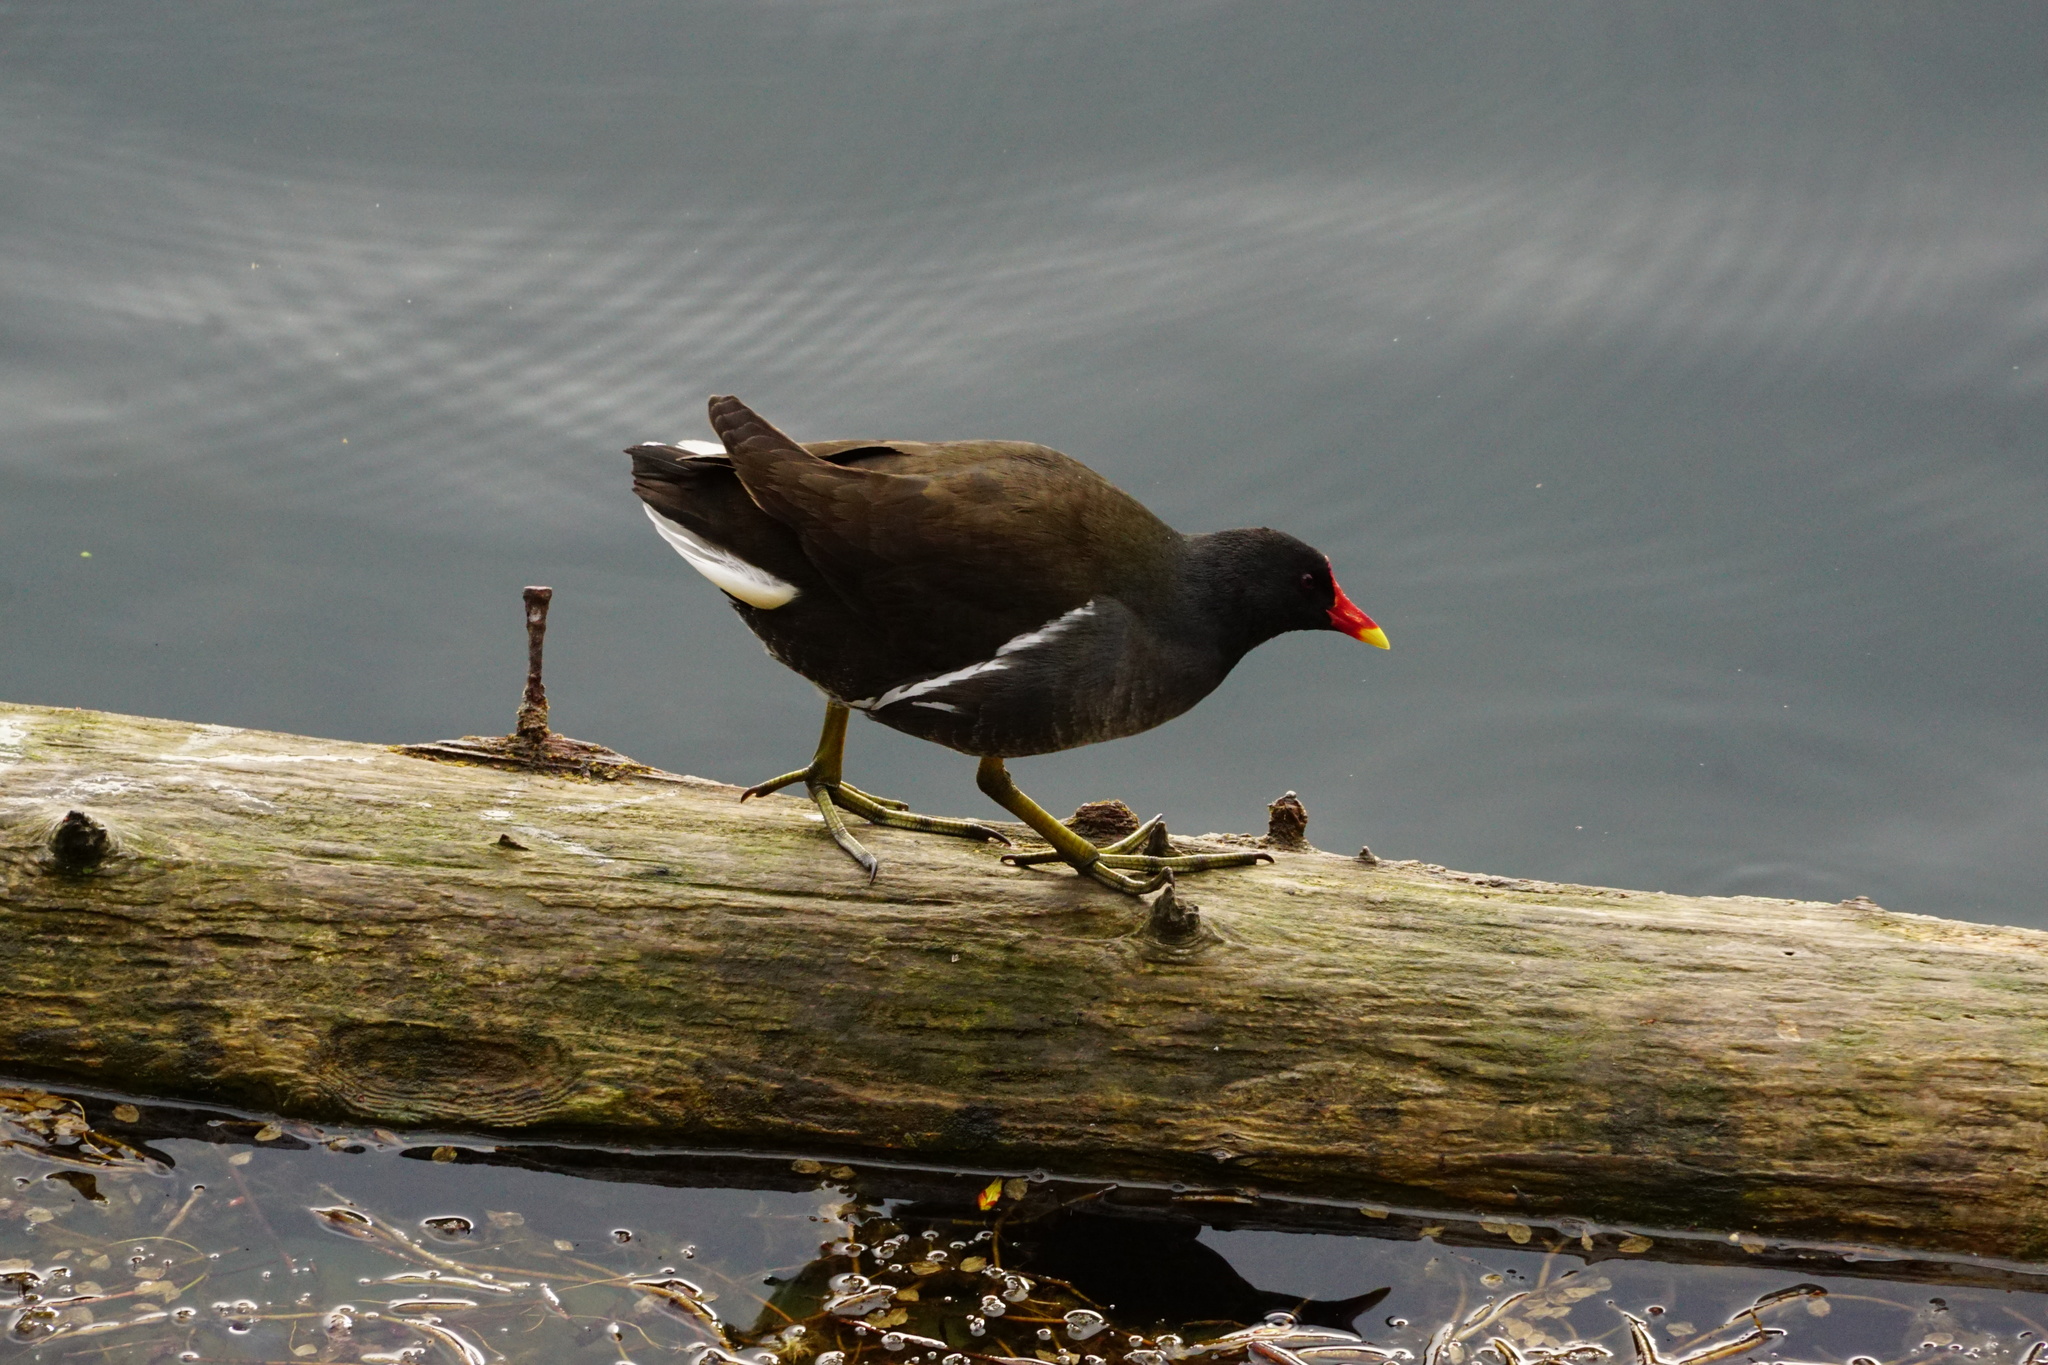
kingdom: Animalia
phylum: Chordata
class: Aves
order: Gruiformes
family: Rallidae
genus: Gallinula
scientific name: Gallinula chloropus
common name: Common moorhen
